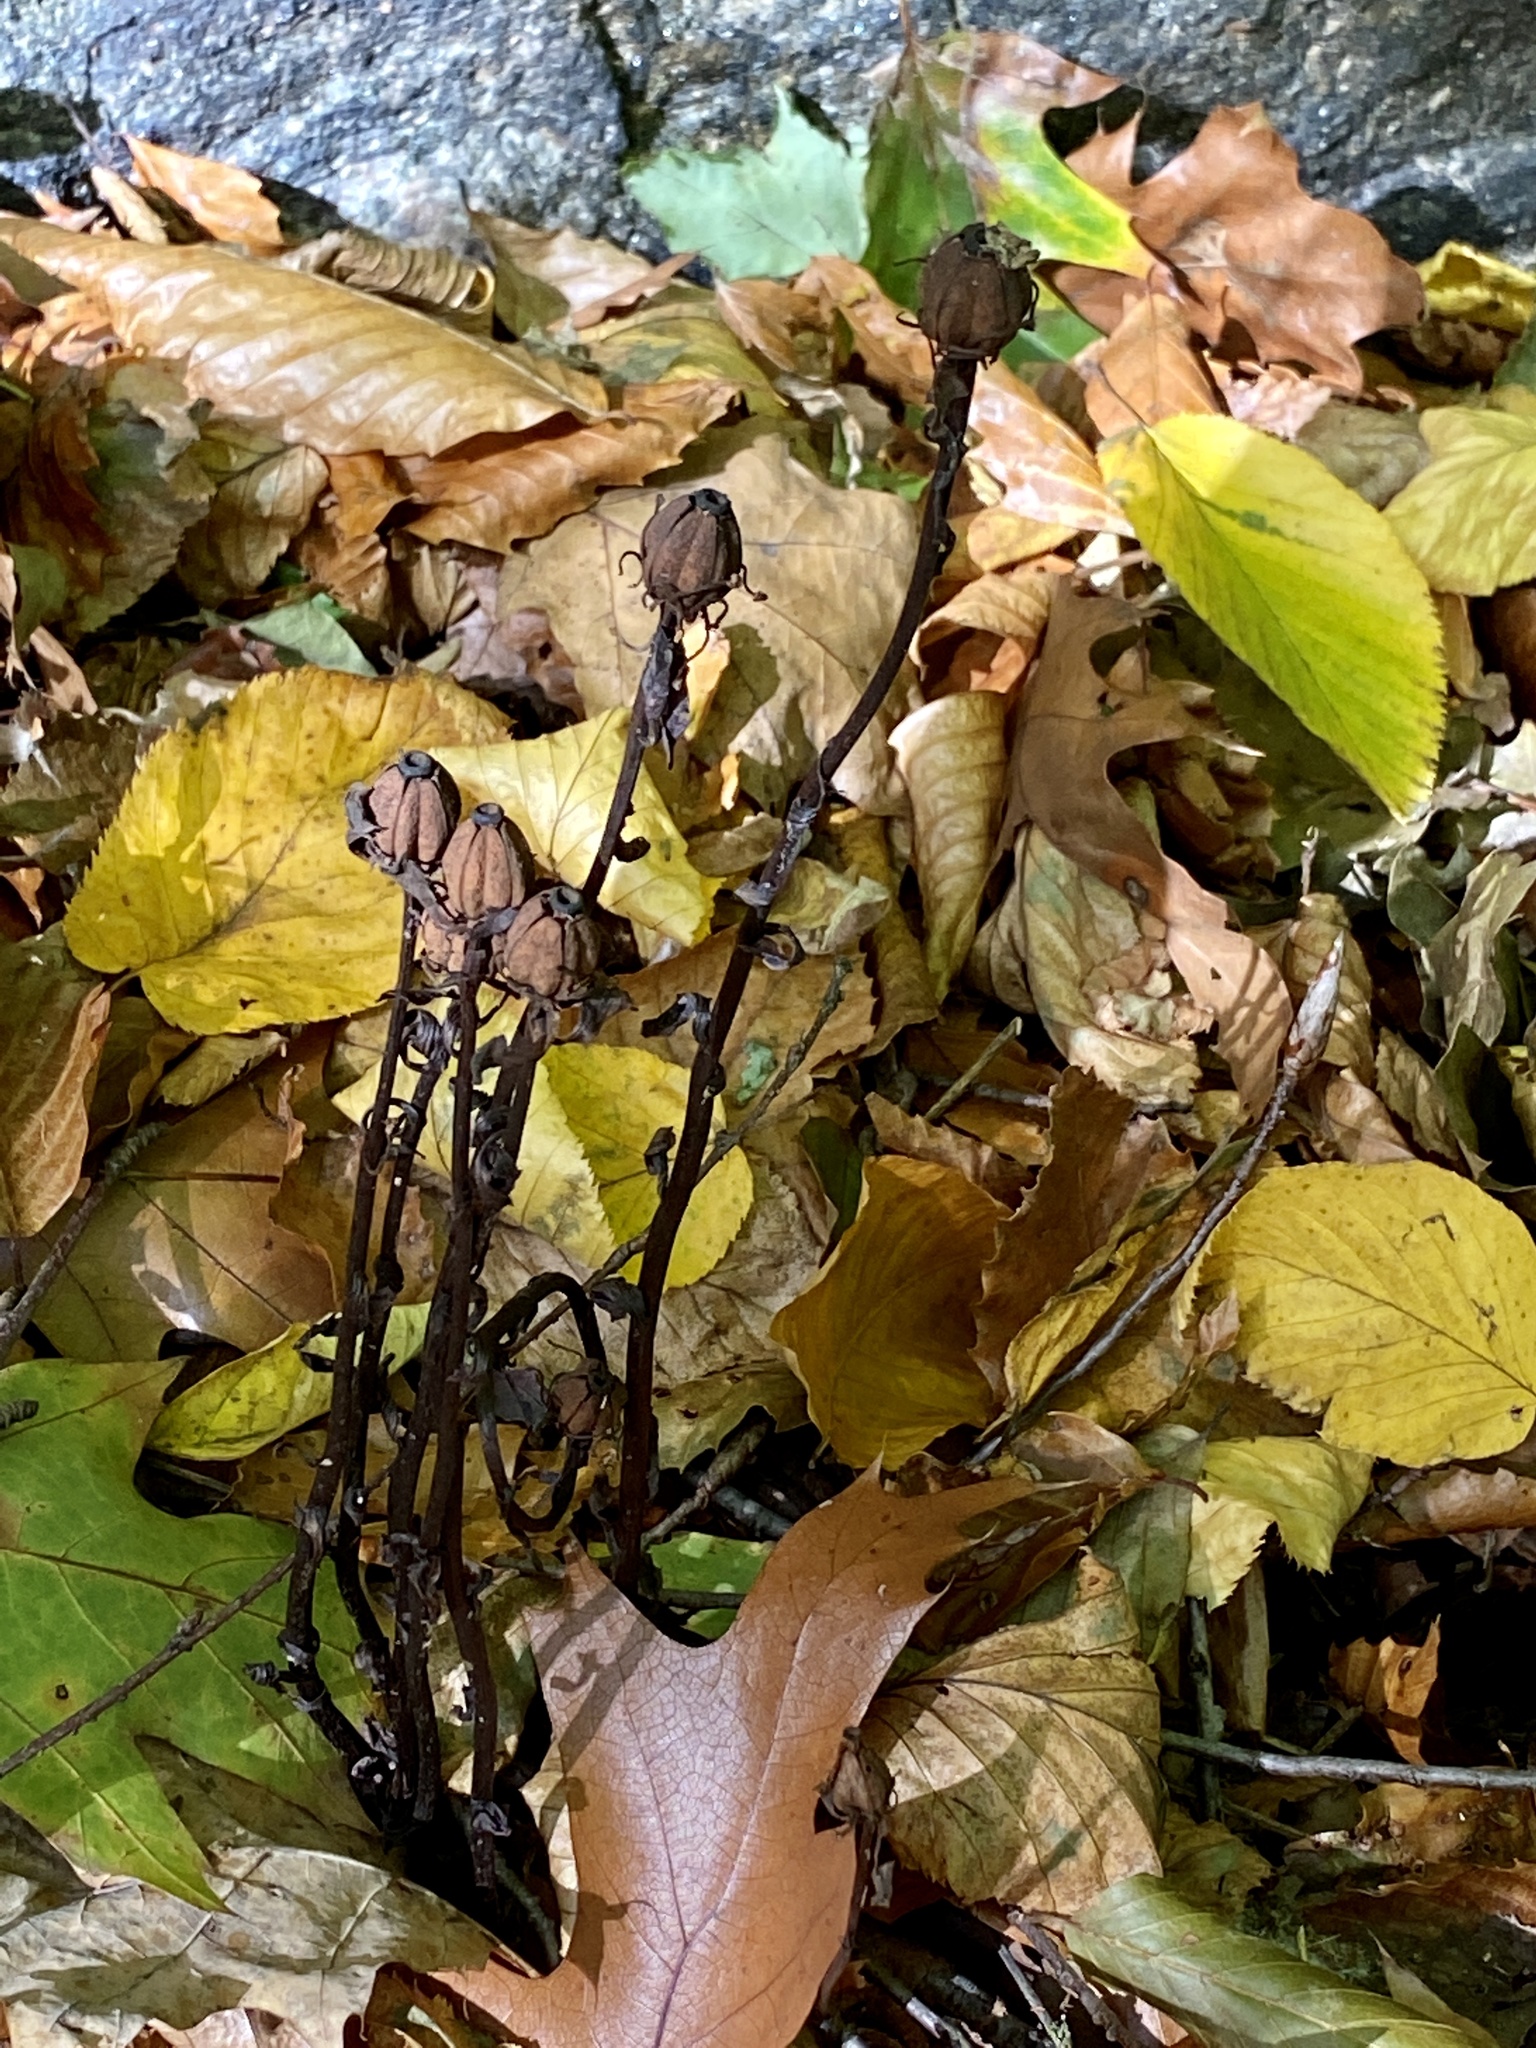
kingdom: Plantae
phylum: Tracheophyta
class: Magnoliopsida
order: Ericales
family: Ericaceae
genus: Monotropa
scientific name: Monotropa uniflora
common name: Convulsion root
